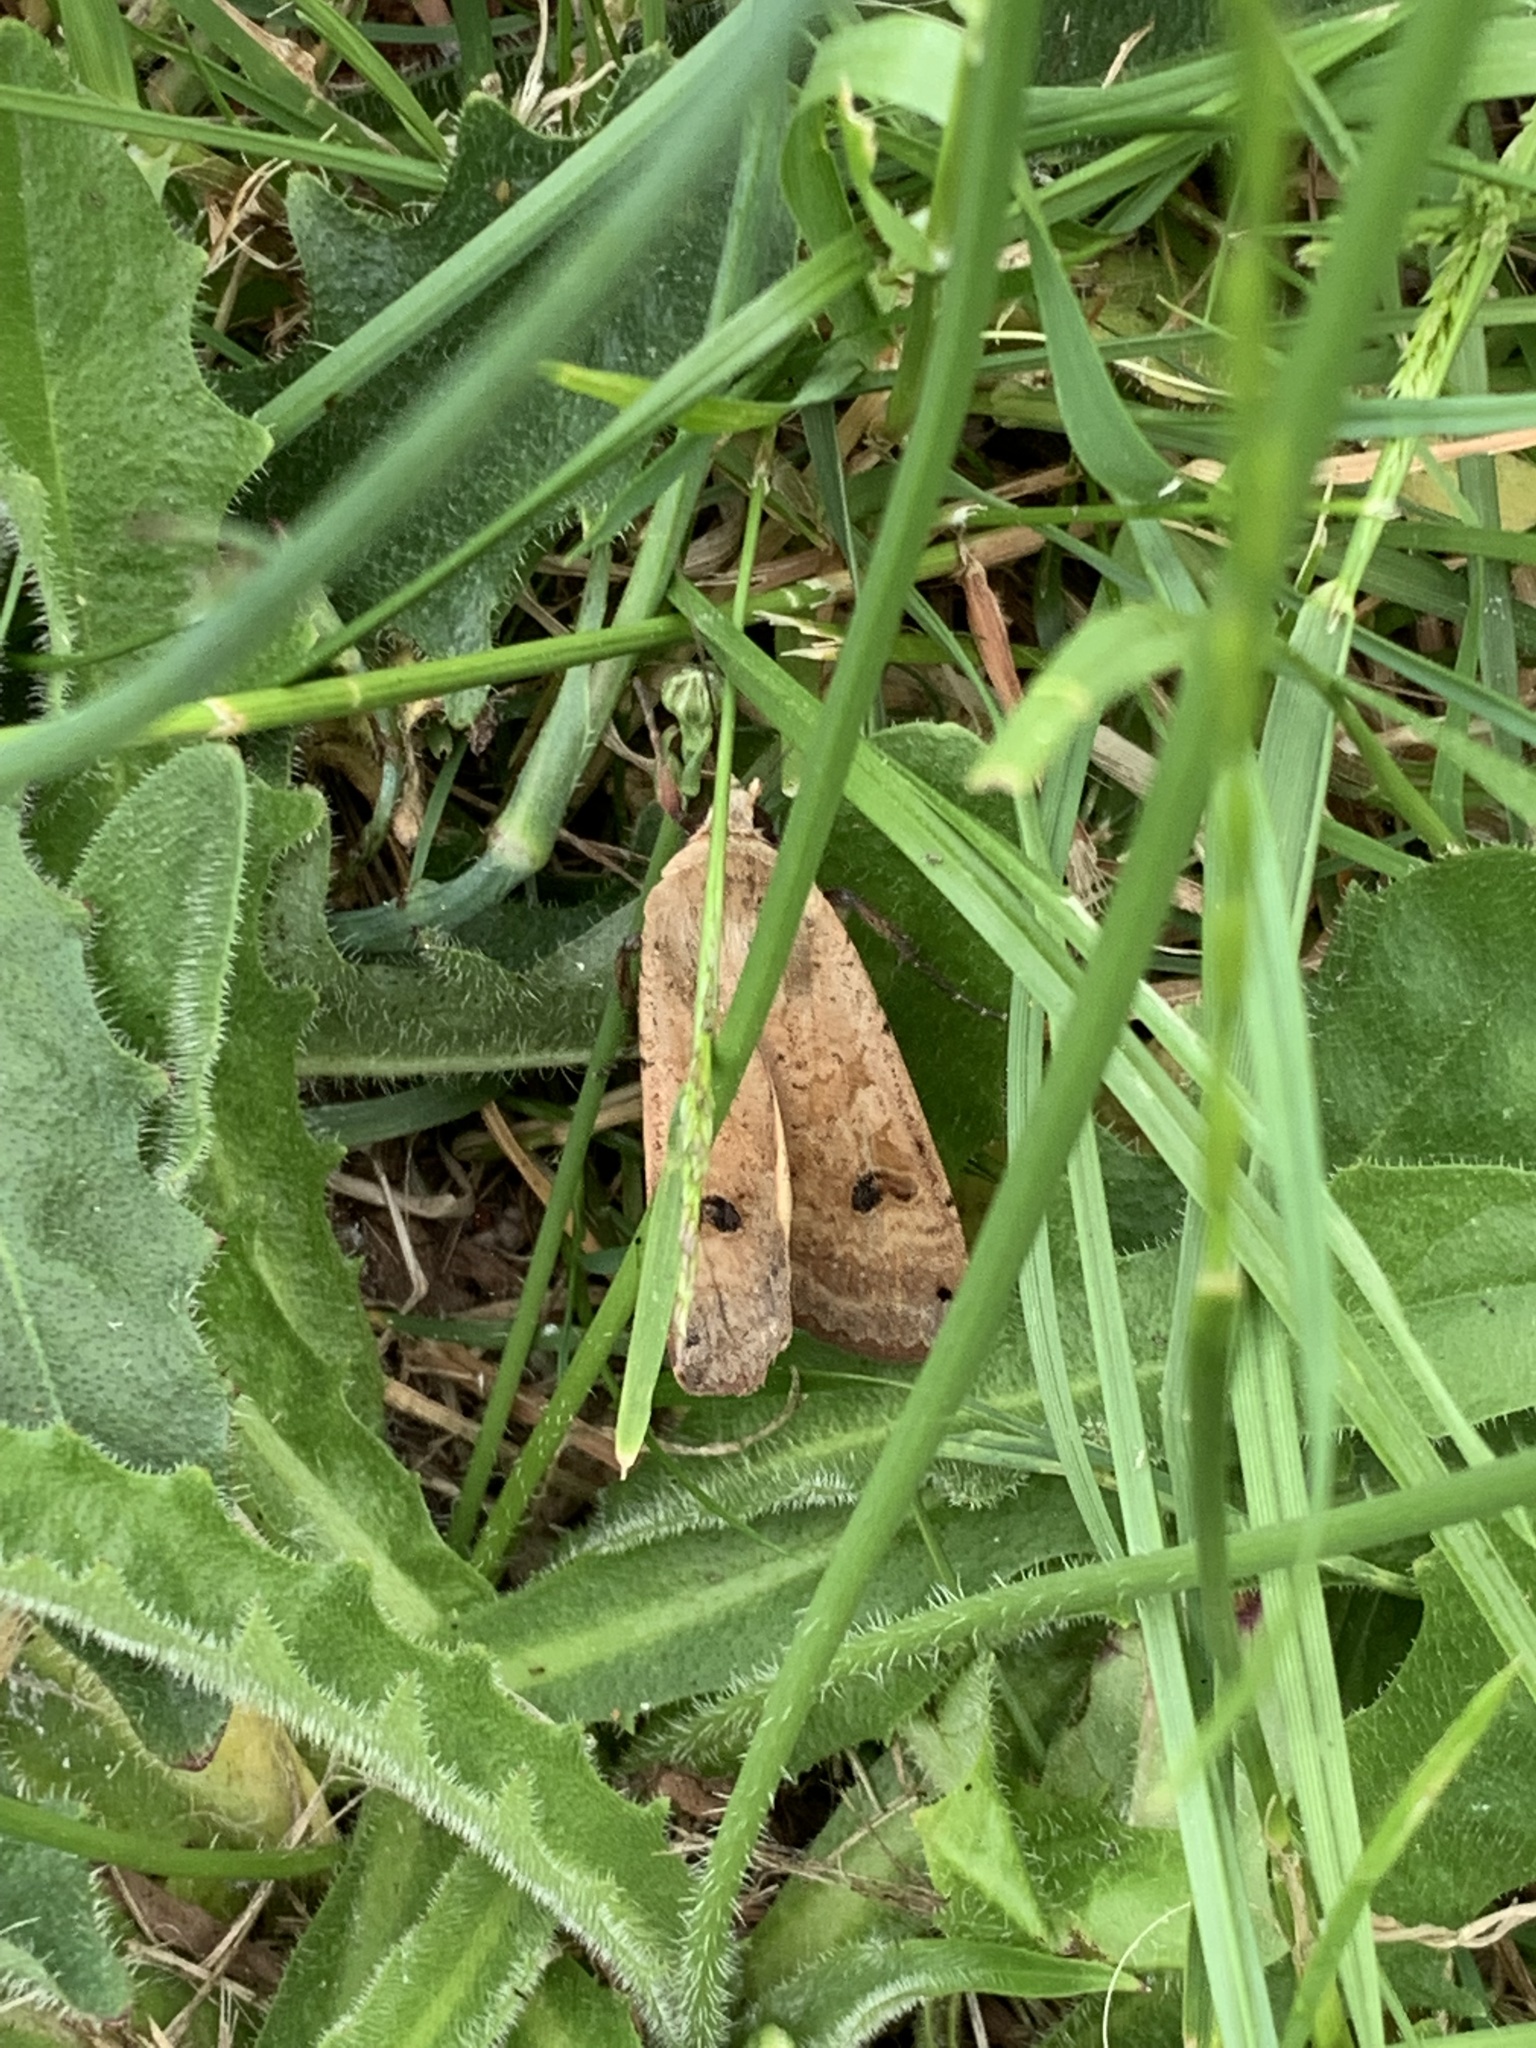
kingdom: Animalia
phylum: Arthropoda
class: Insecta
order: Lepidoptera
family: Noctuidae
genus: Noctua
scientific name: Noctua pronuba
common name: Large yellow underwing
